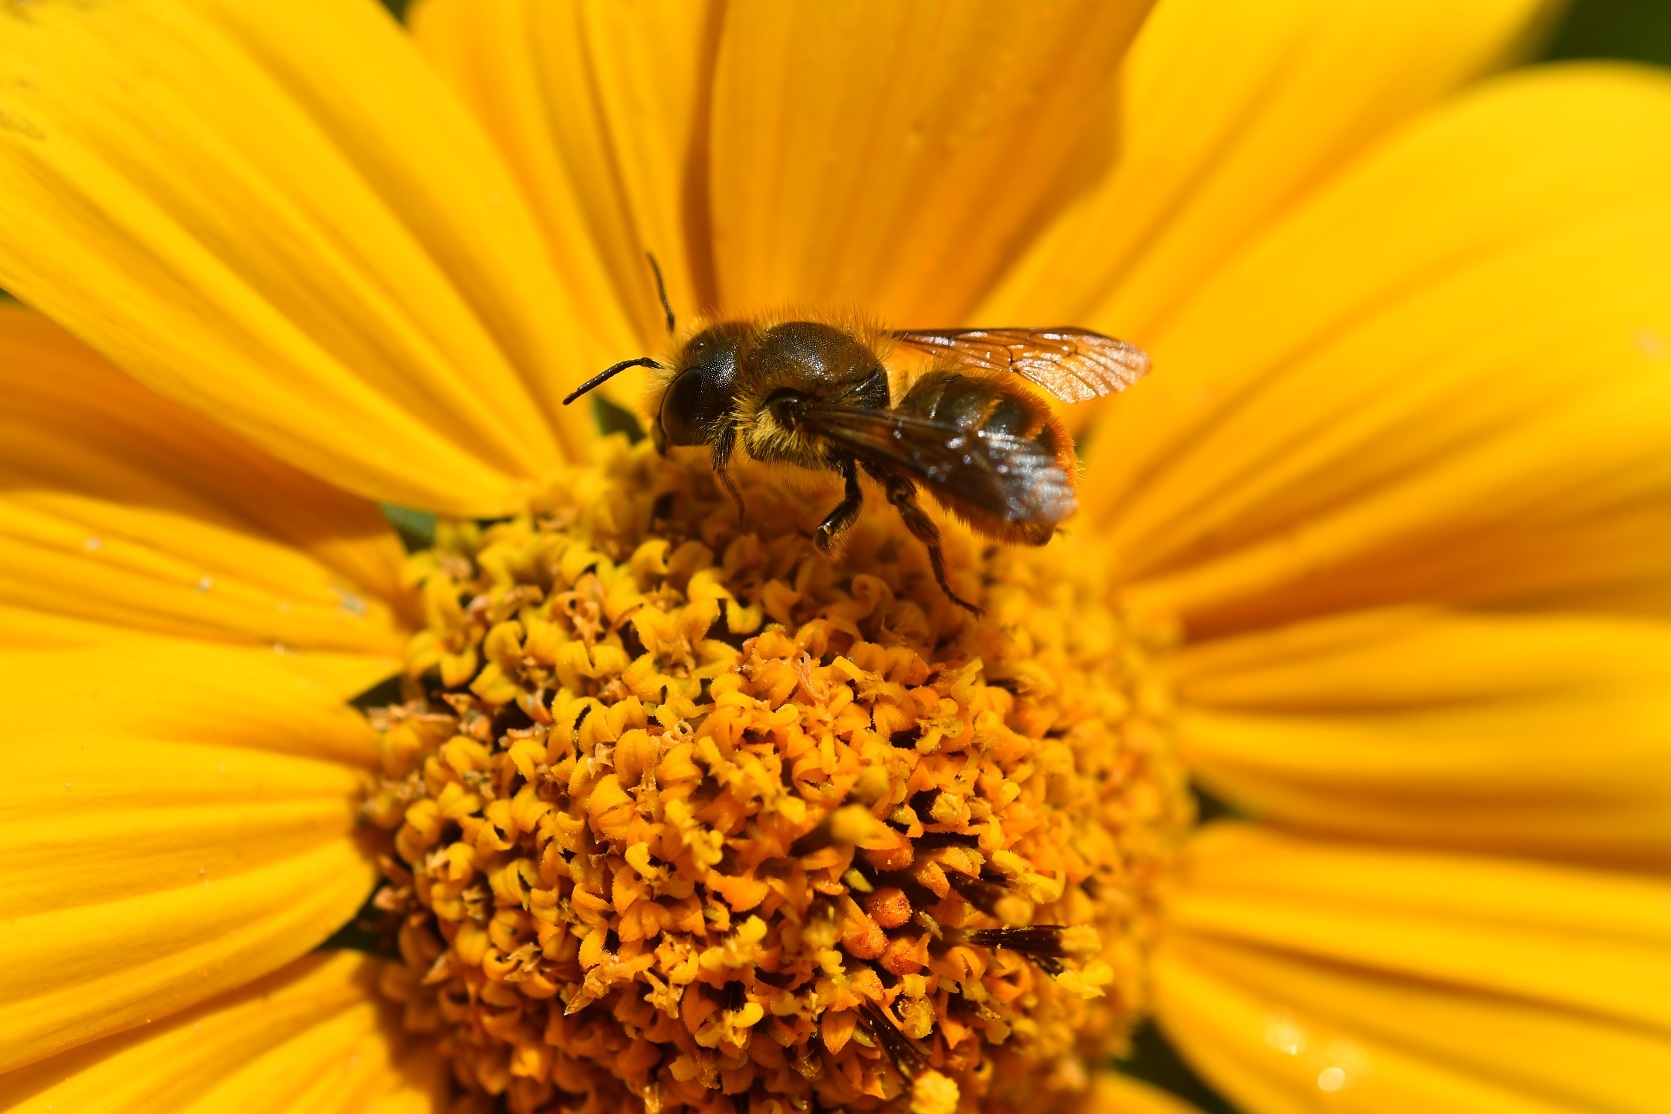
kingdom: Animalia
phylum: Arthropoda
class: Insecta
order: Hymenoptera
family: Megachilidae
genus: Osmia
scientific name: Osmia azteca
